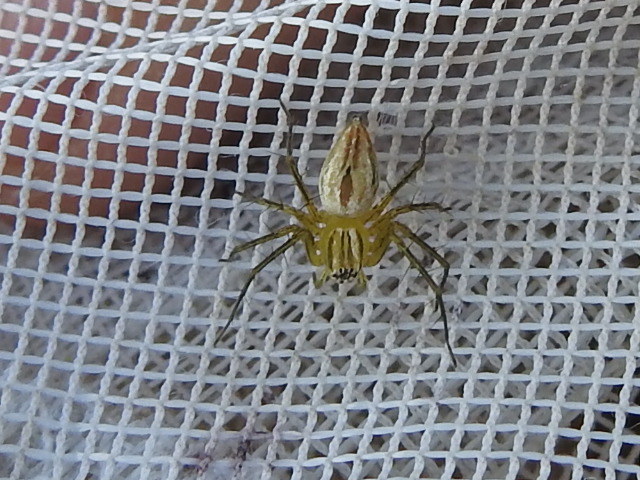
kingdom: Animalia
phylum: Arthropoda
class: Arachnida
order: Araneae
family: Oxyopidae
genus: Oxyopes
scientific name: Oxyopes salticus
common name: Lynx spiders
